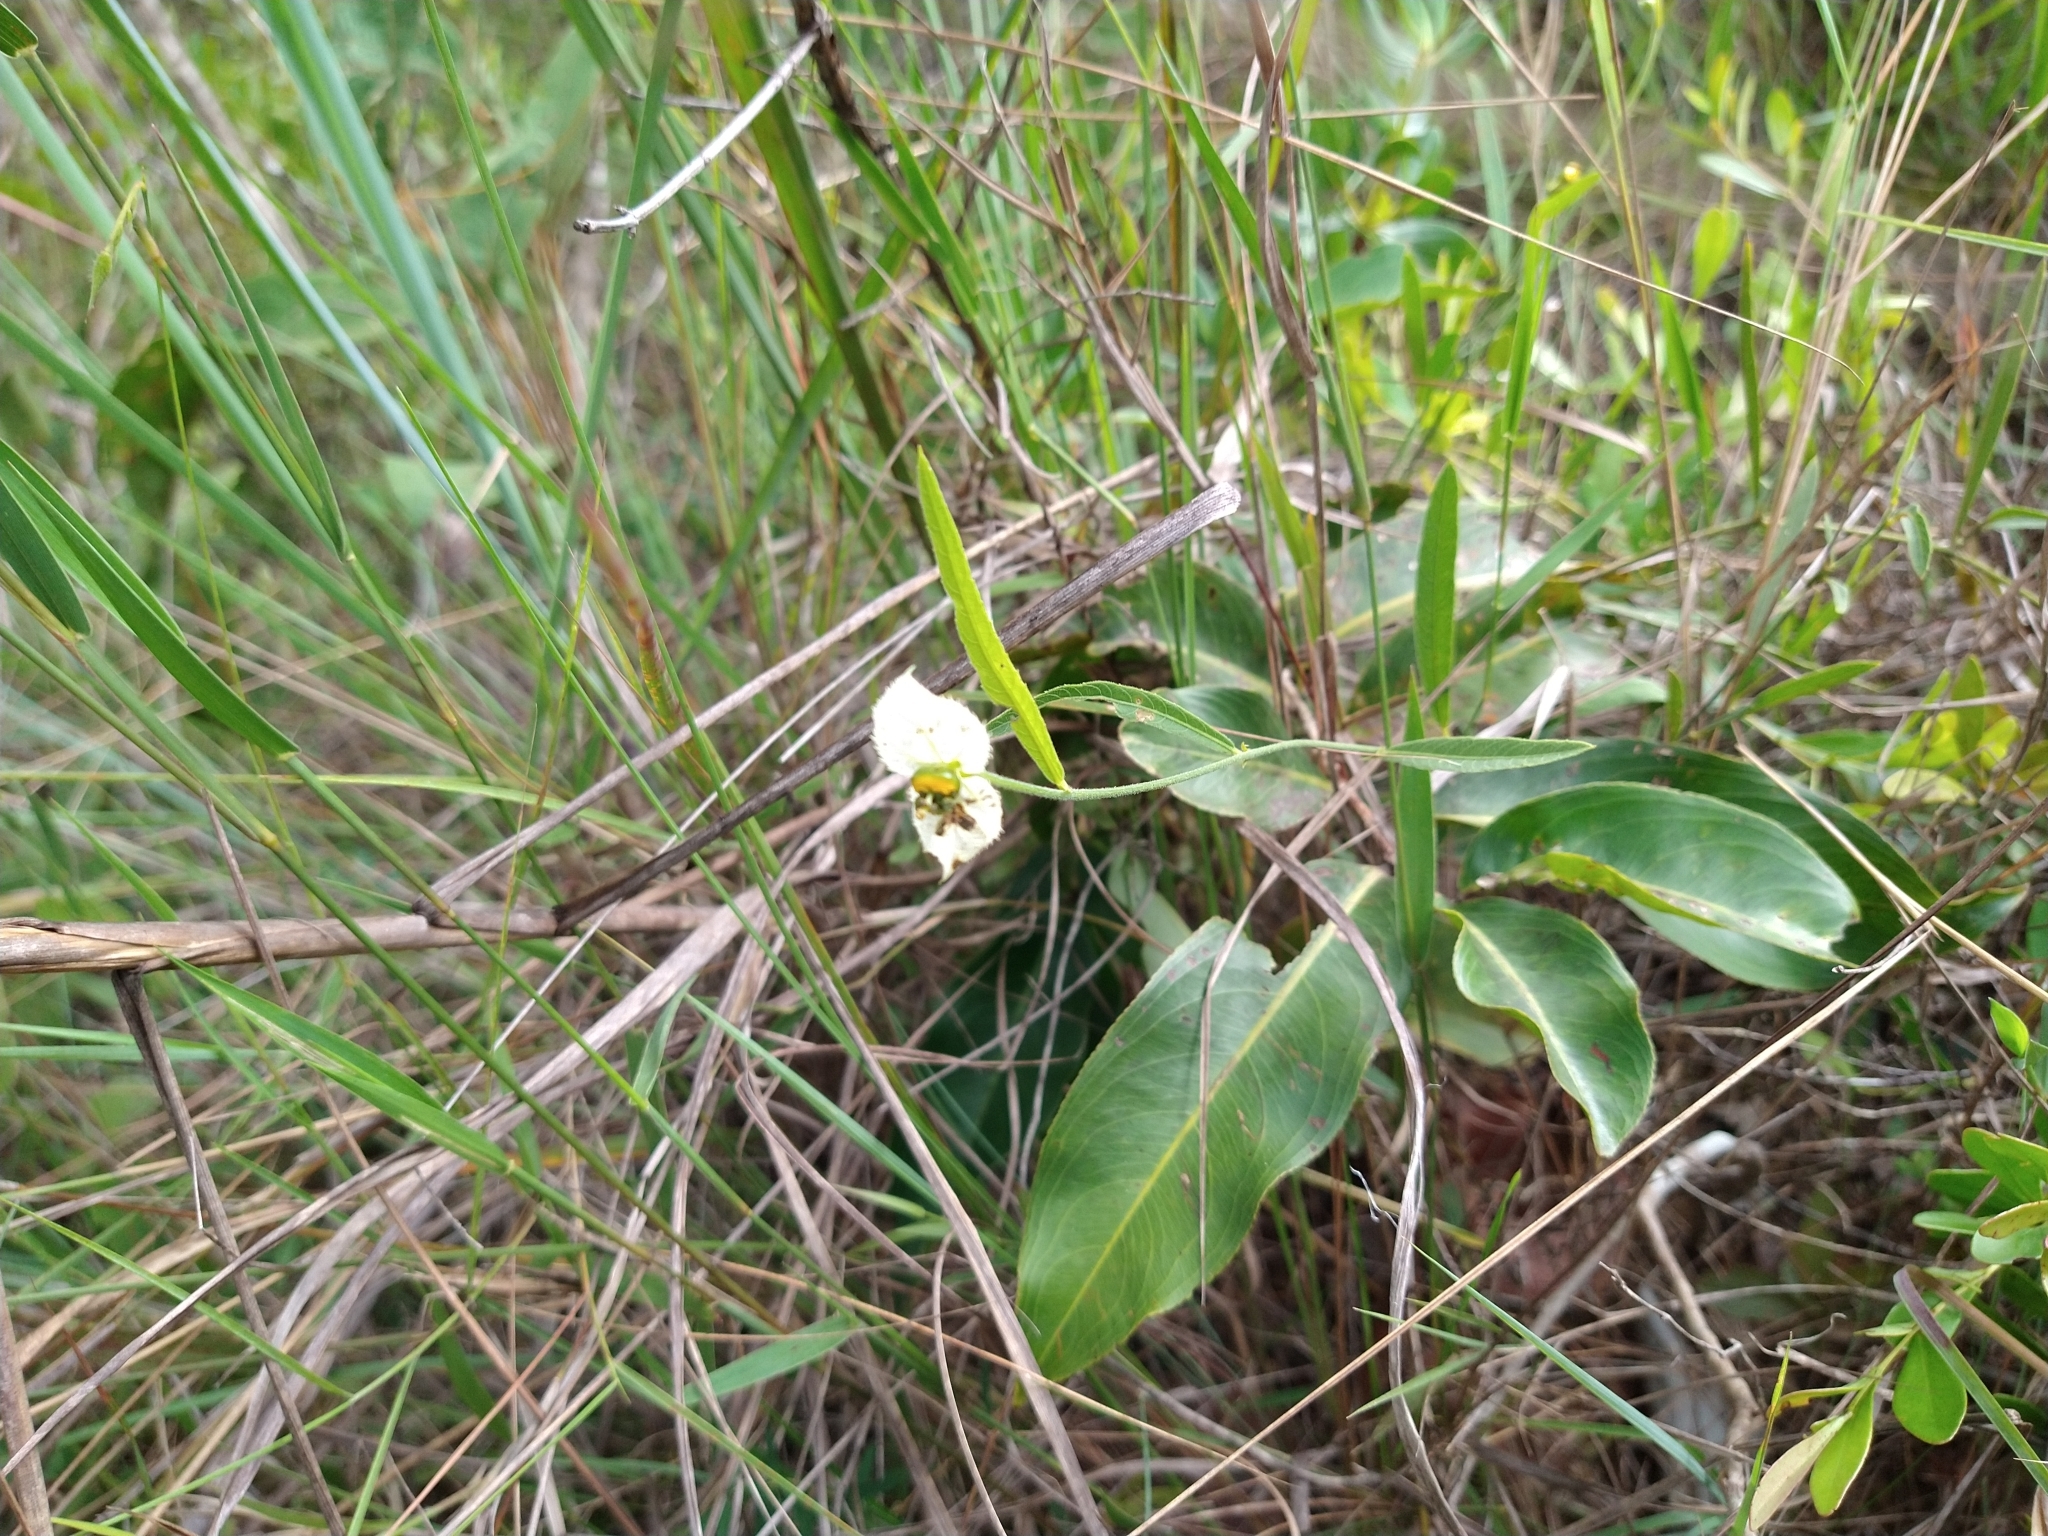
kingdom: Plantae
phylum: Tracheophyta
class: Magnoliopsida
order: Malpighiales
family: Euphorbiaceae
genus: Dalechampia
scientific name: Dalechampia caperonioides
